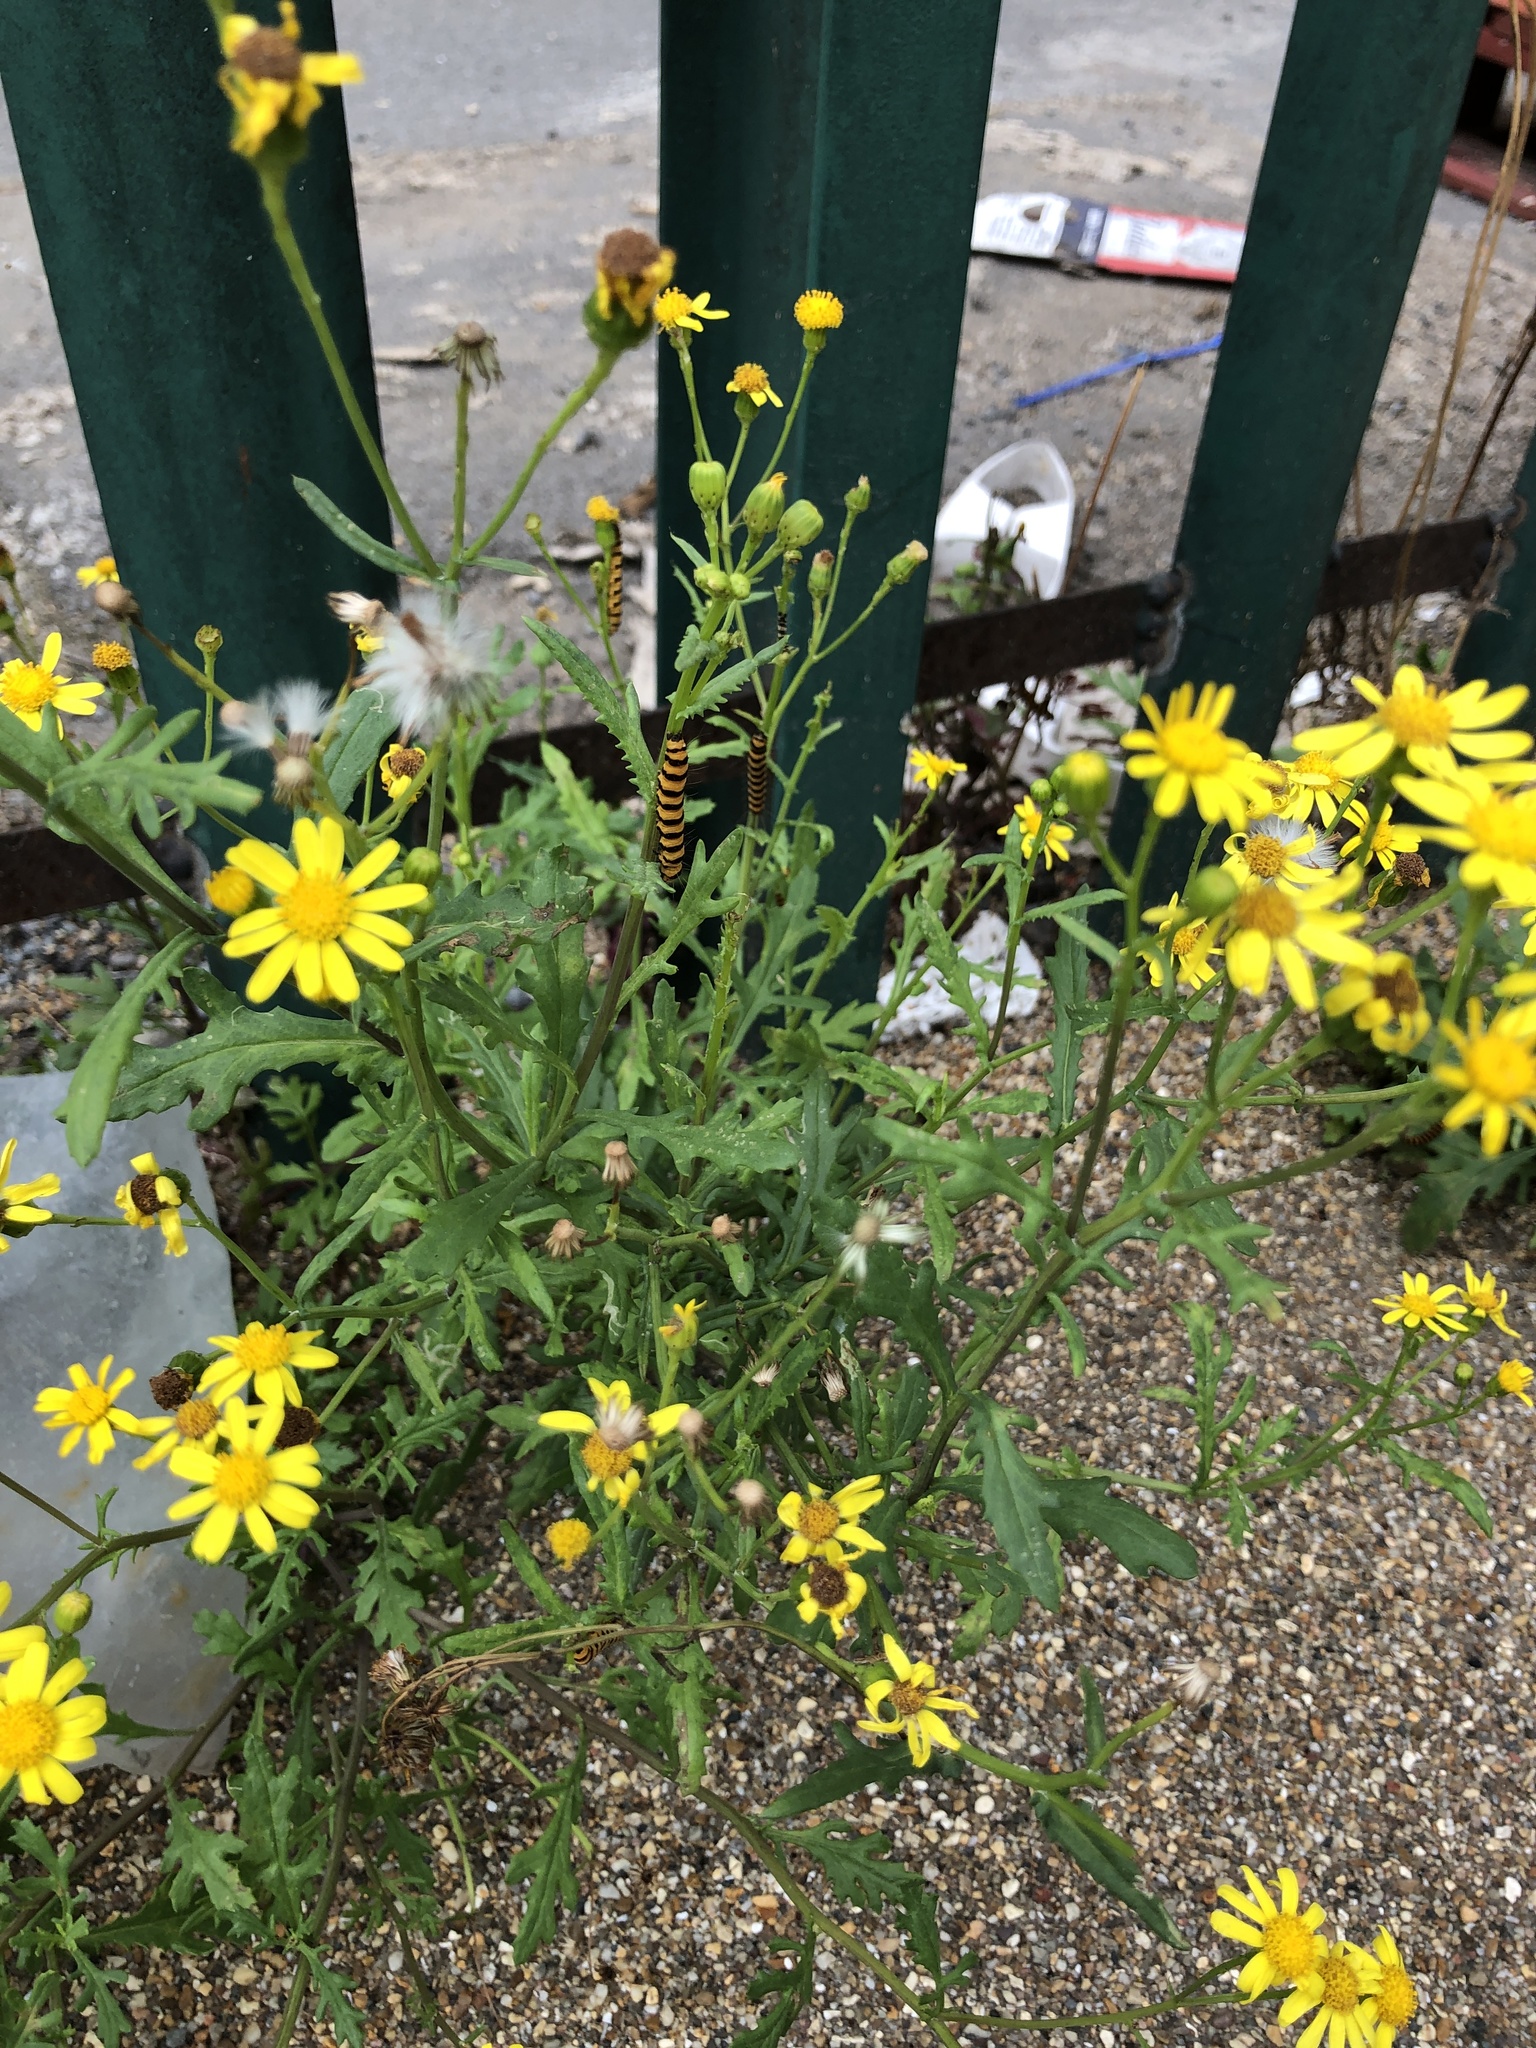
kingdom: Animalia
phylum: Arthropoda
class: Insecta
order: Lepidoptera
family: Erebidae
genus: Tyria
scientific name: Tyria jacobaeae
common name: Cinnabar
